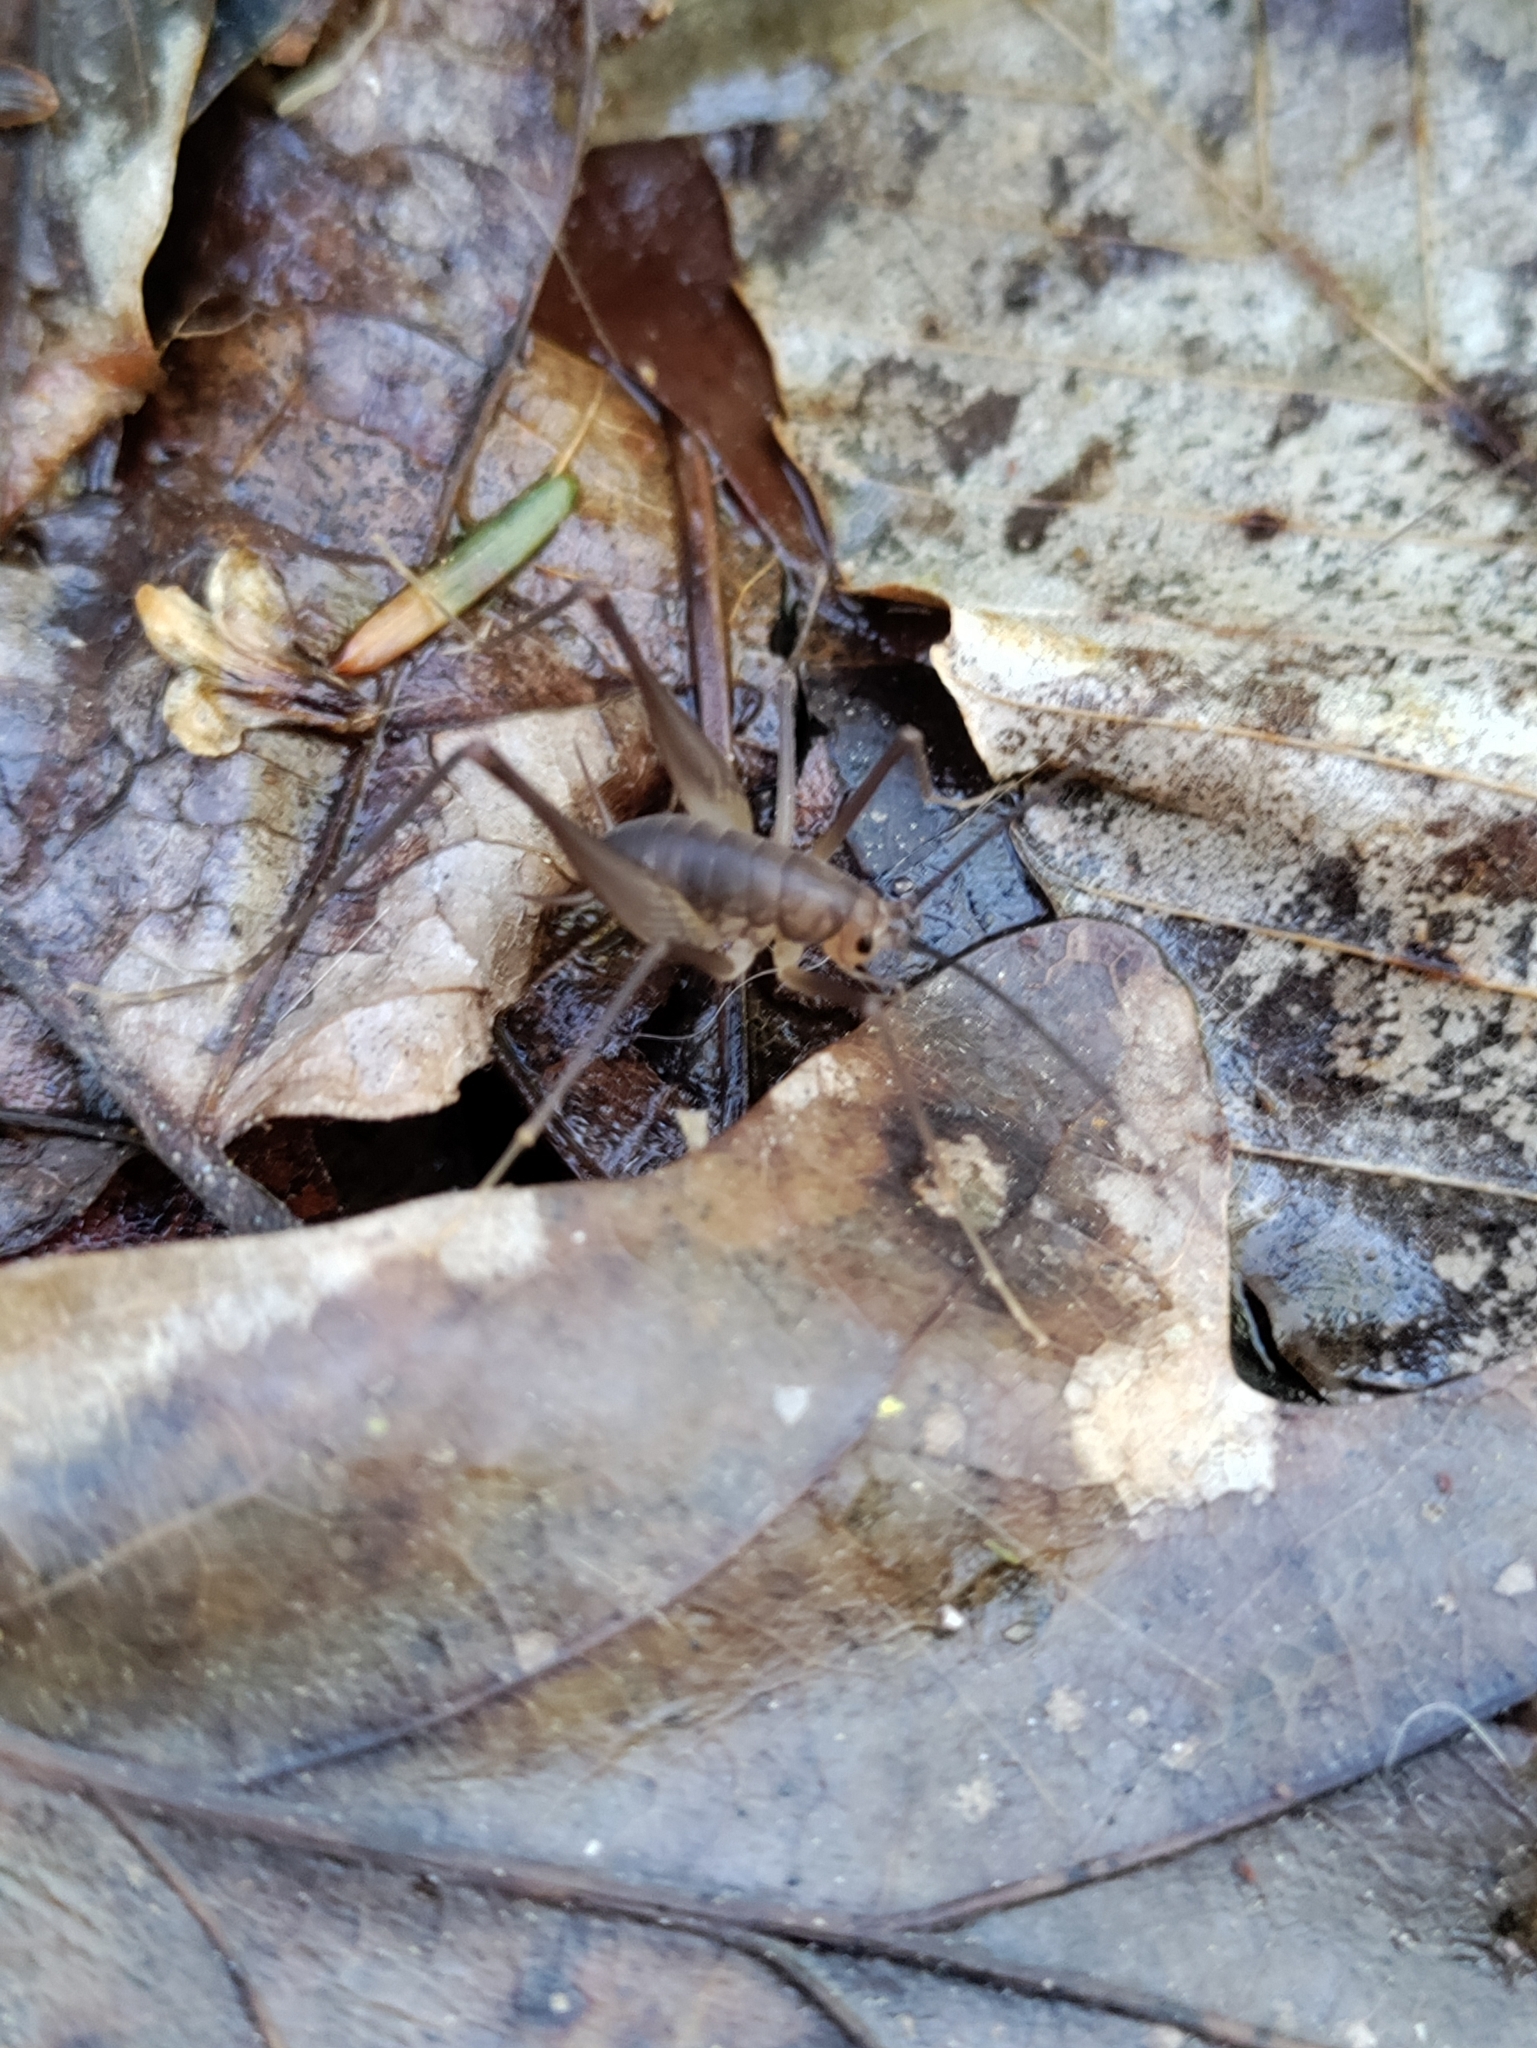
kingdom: Animalia
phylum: Arthropoda
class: Insecta
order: Orthoptera
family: Rhaphidophoridae
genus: Euhadenoecus
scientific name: Euhadenoecus puteanus
